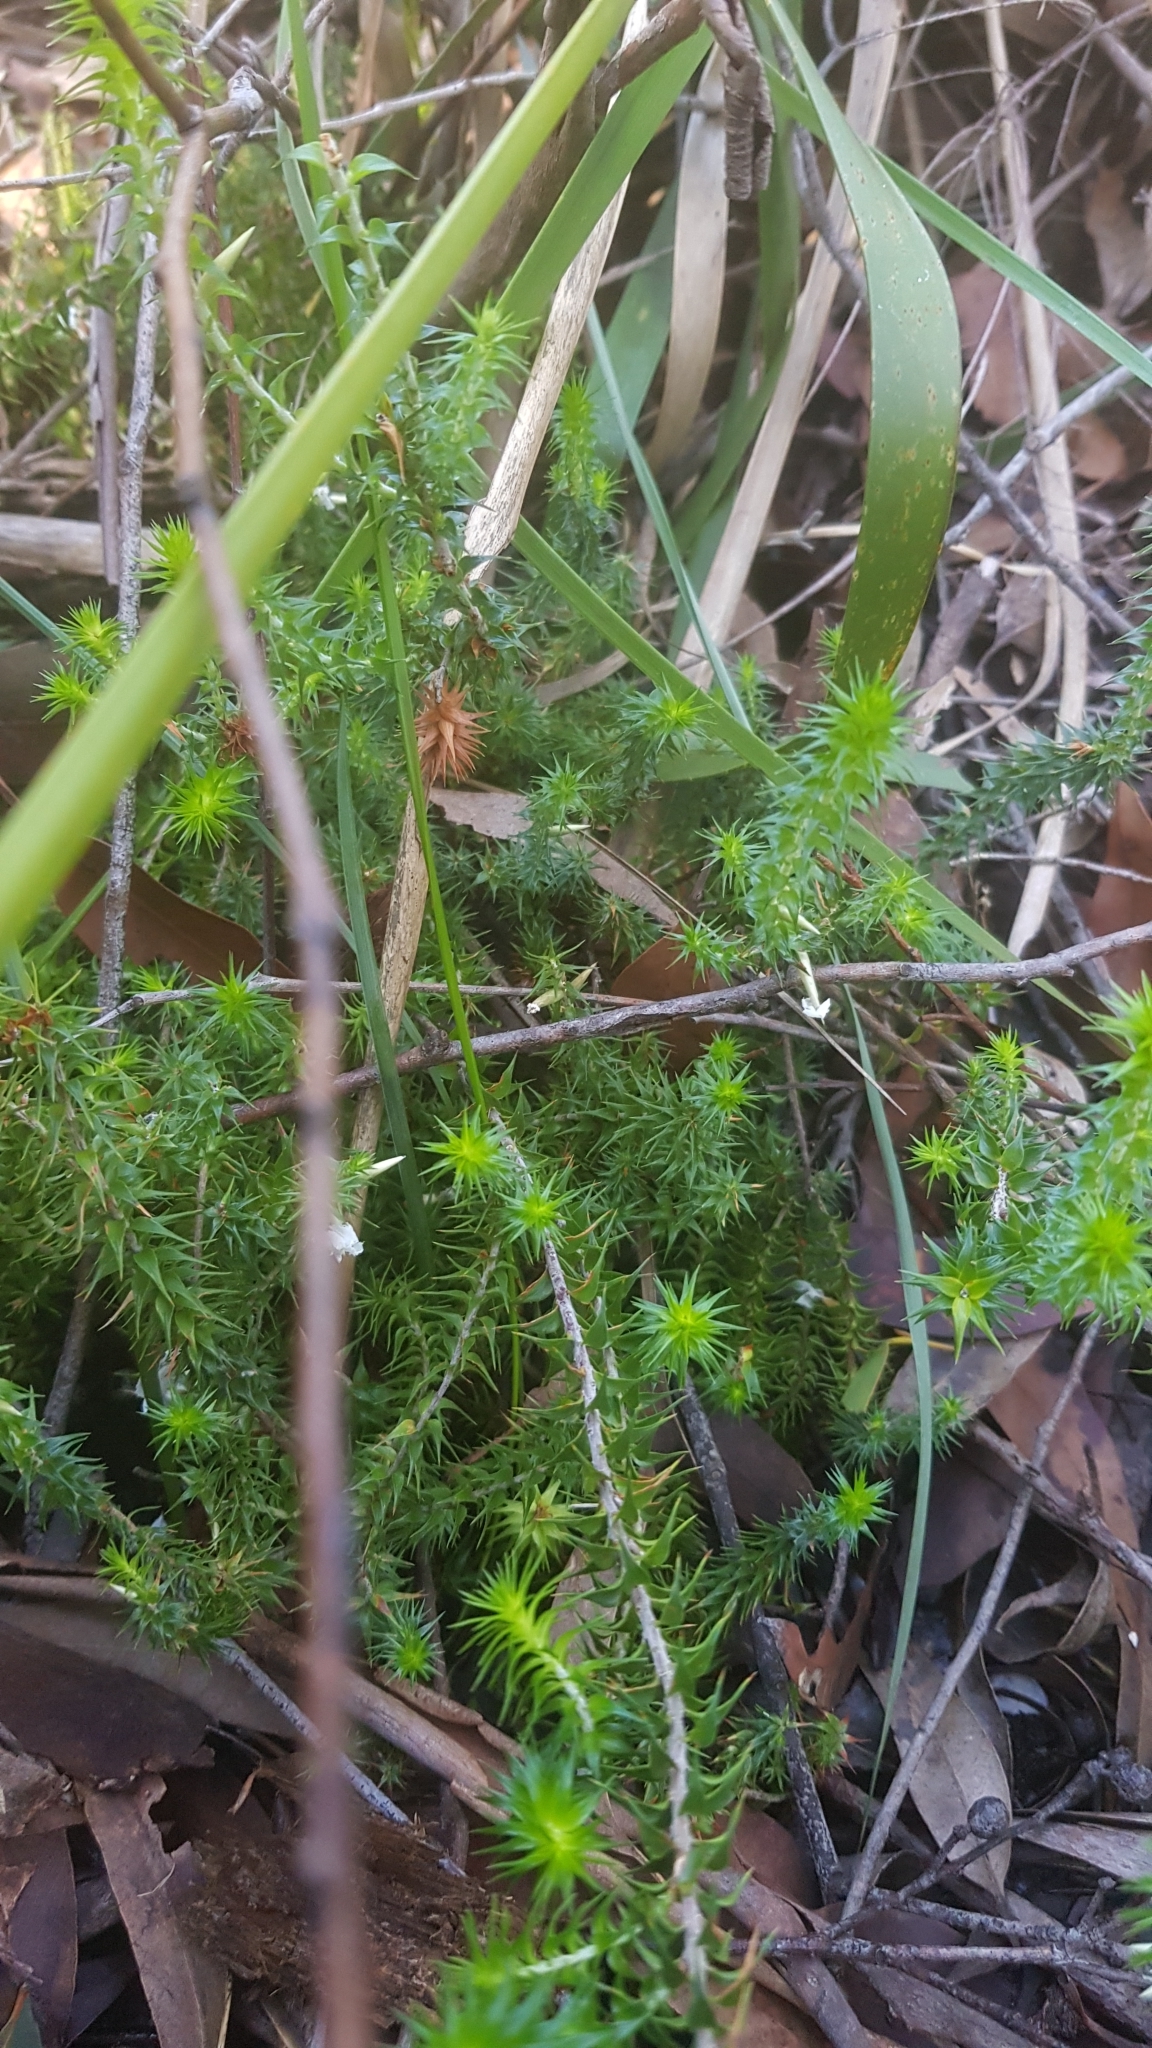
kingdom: Plantae
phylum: Tracheophyta
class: Magnoliopsida
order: Ericales
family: Ericaceae
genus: Woollsia
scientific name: Woollsia pungens
